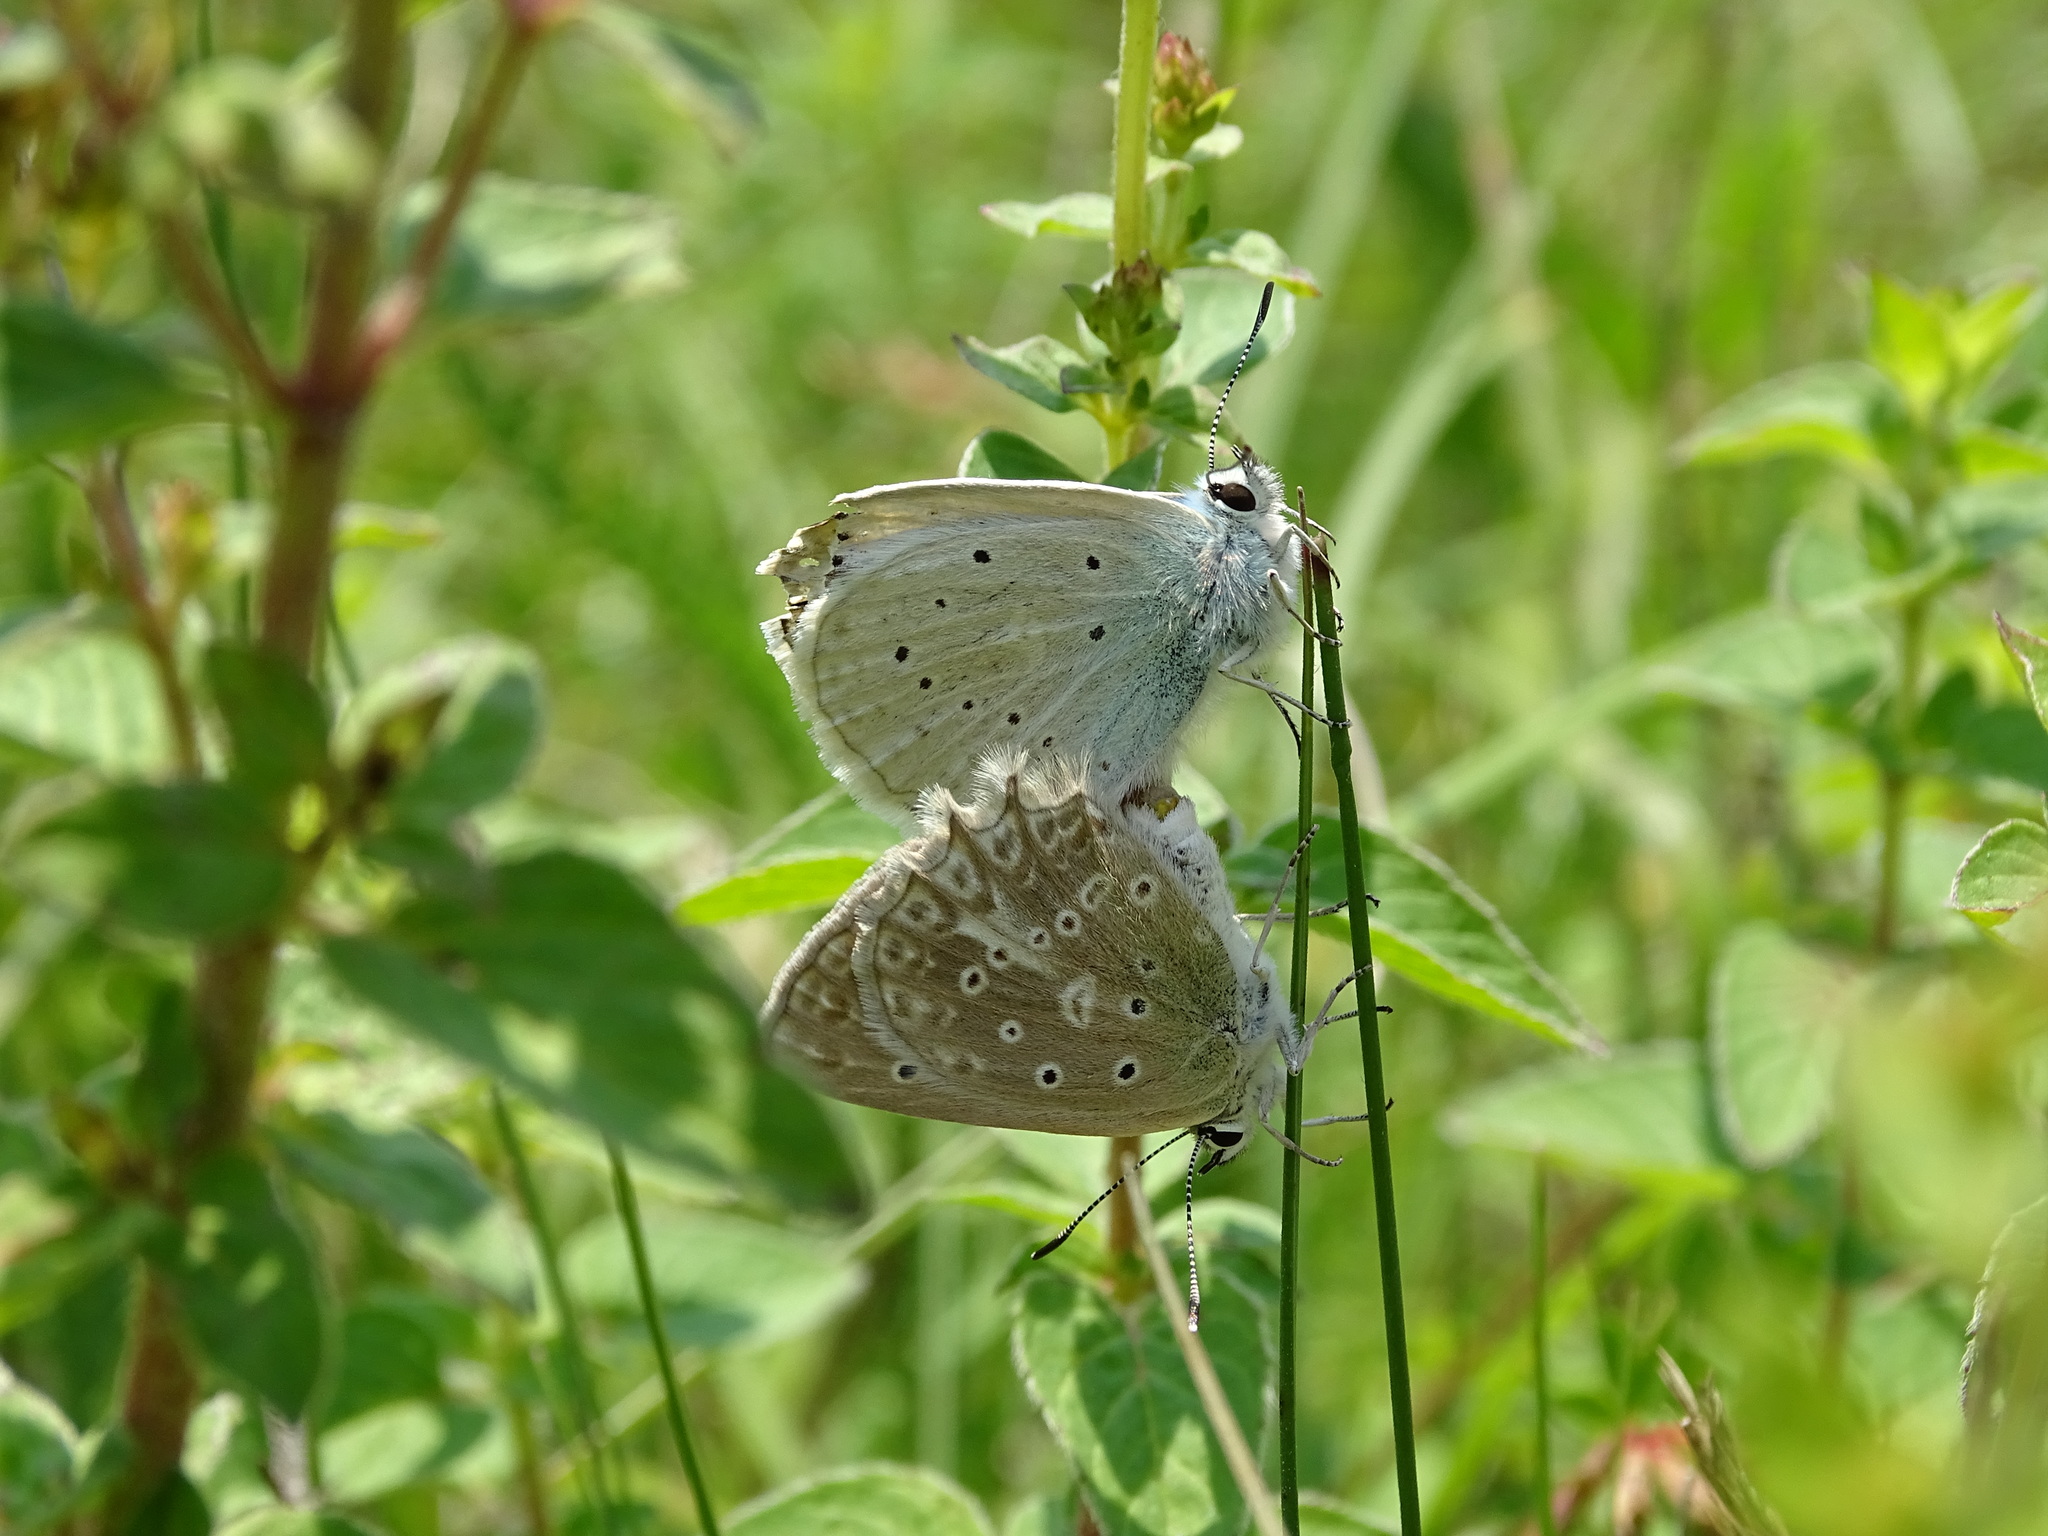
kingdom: Animalia
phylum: Arthropoda
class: Insecta
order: Lepidoptera
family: Lycaenidae
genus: Polyommatus
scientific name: Polyommatus daphnis
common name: Meleager's blue
